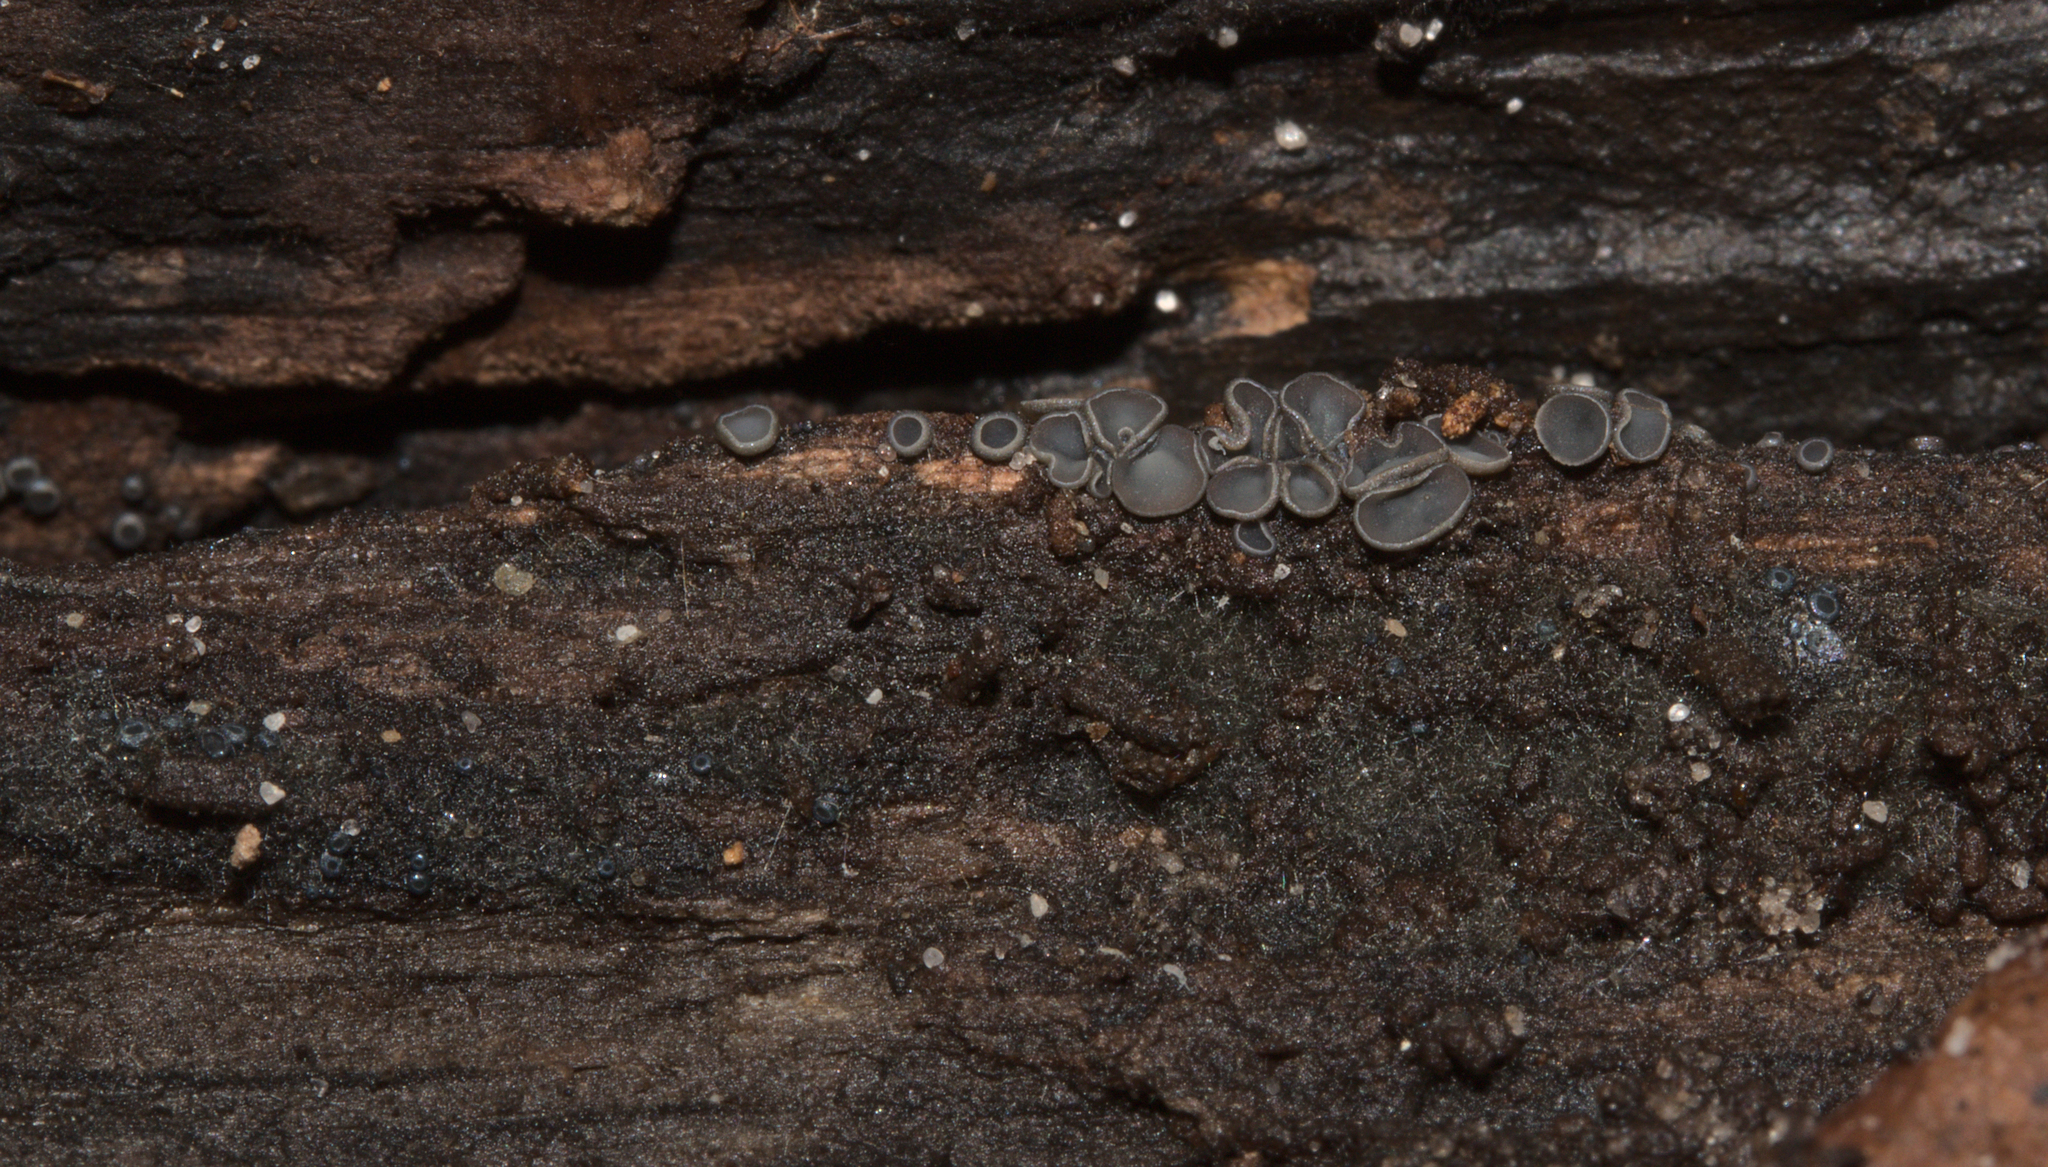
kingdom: Fungi
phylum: Ascomycota
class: Leotiomycetes
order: Helotiales
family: Mollisiaceae
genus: Mollisia
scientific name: Mollisia
